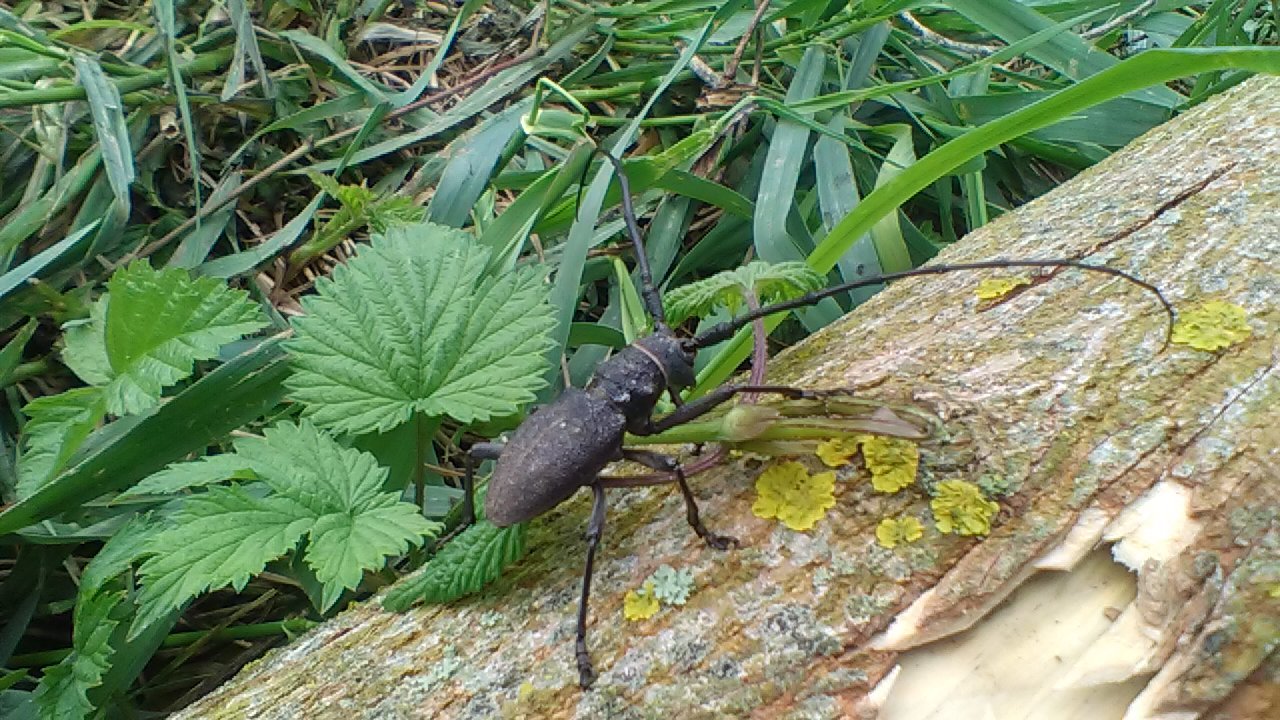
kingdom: Animalia
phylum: Arthropoda
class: Insecta
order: Coleoptera
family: Cerambycidae
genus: Morimus
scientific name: Morimus verecundus
